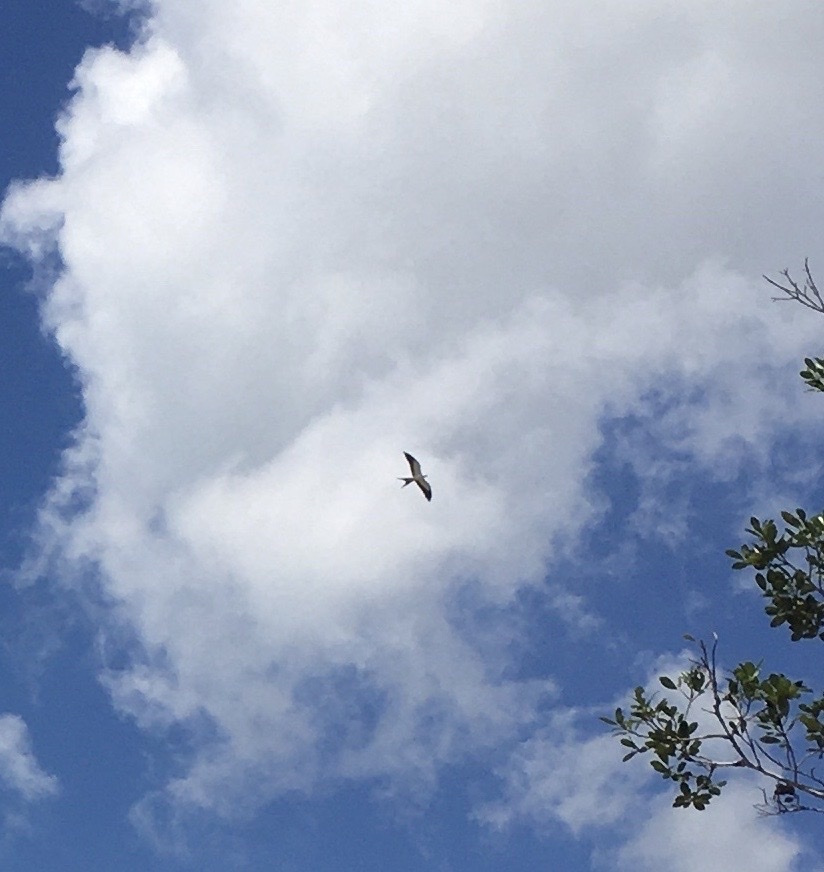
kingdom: Animalia
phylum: Chordata
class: Aves
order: Accipitriformes
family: Accipitridae
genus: Elanoides
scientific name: Elanoides forficatus
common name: Swallow-tailed kite
